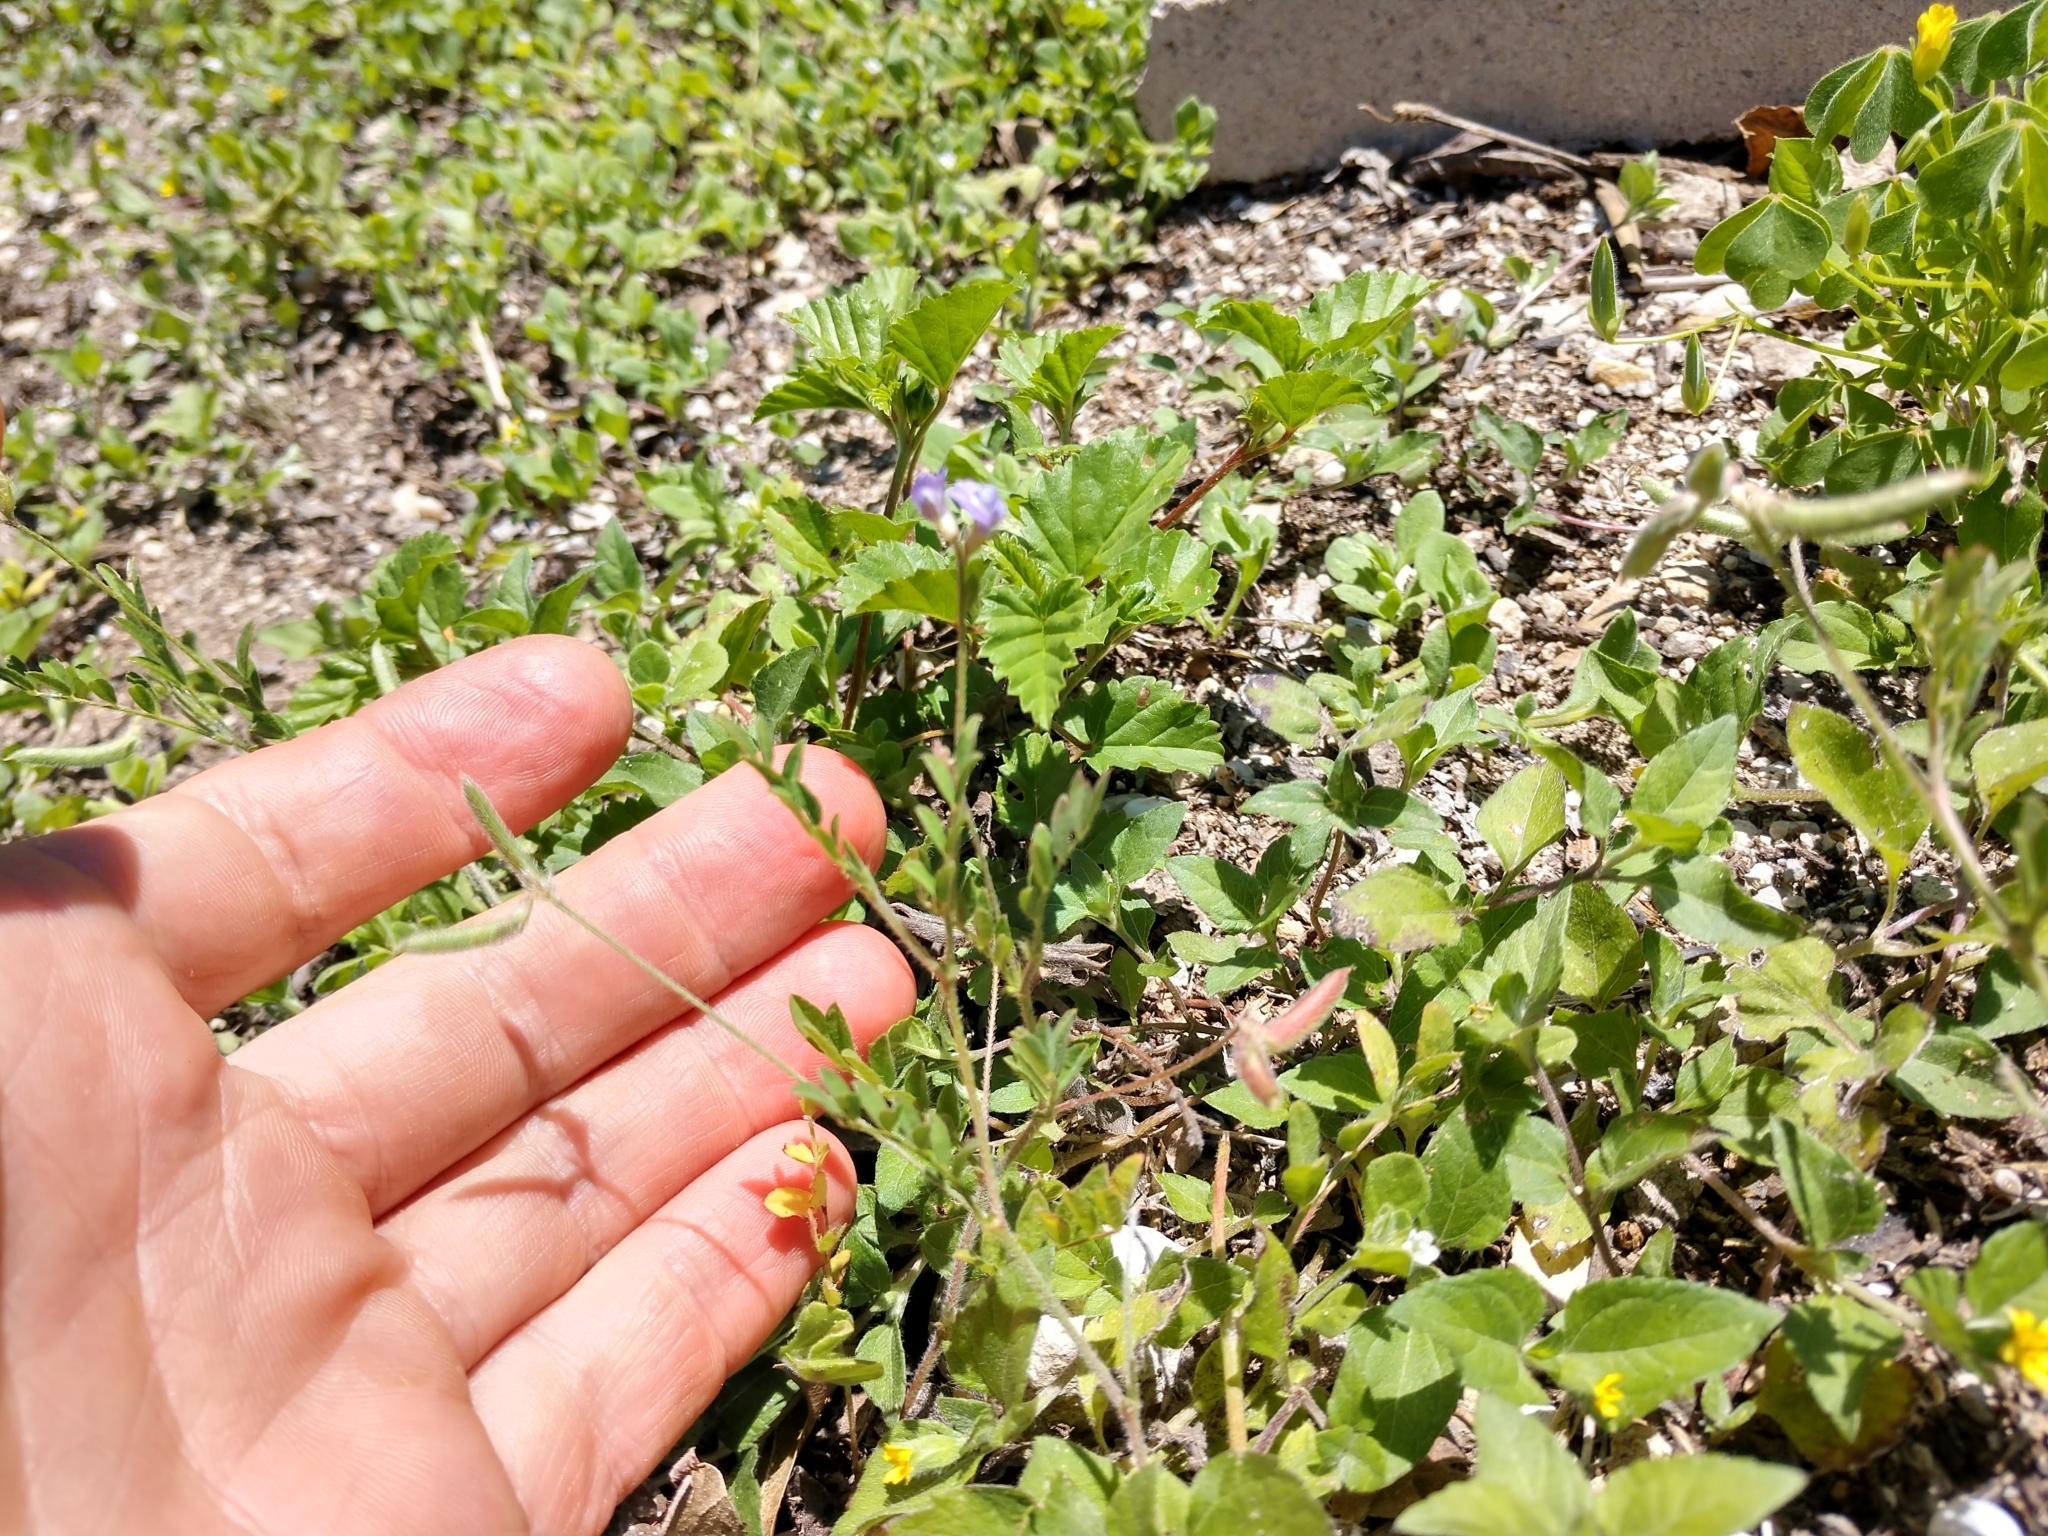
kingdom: Plantae
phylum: Tracheophyta
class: Magnoliopsida
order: Fabales
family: Fabaceae
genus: Astragalus
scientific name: Astragalus nuttallianus
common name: Smallflowered milkvetch
